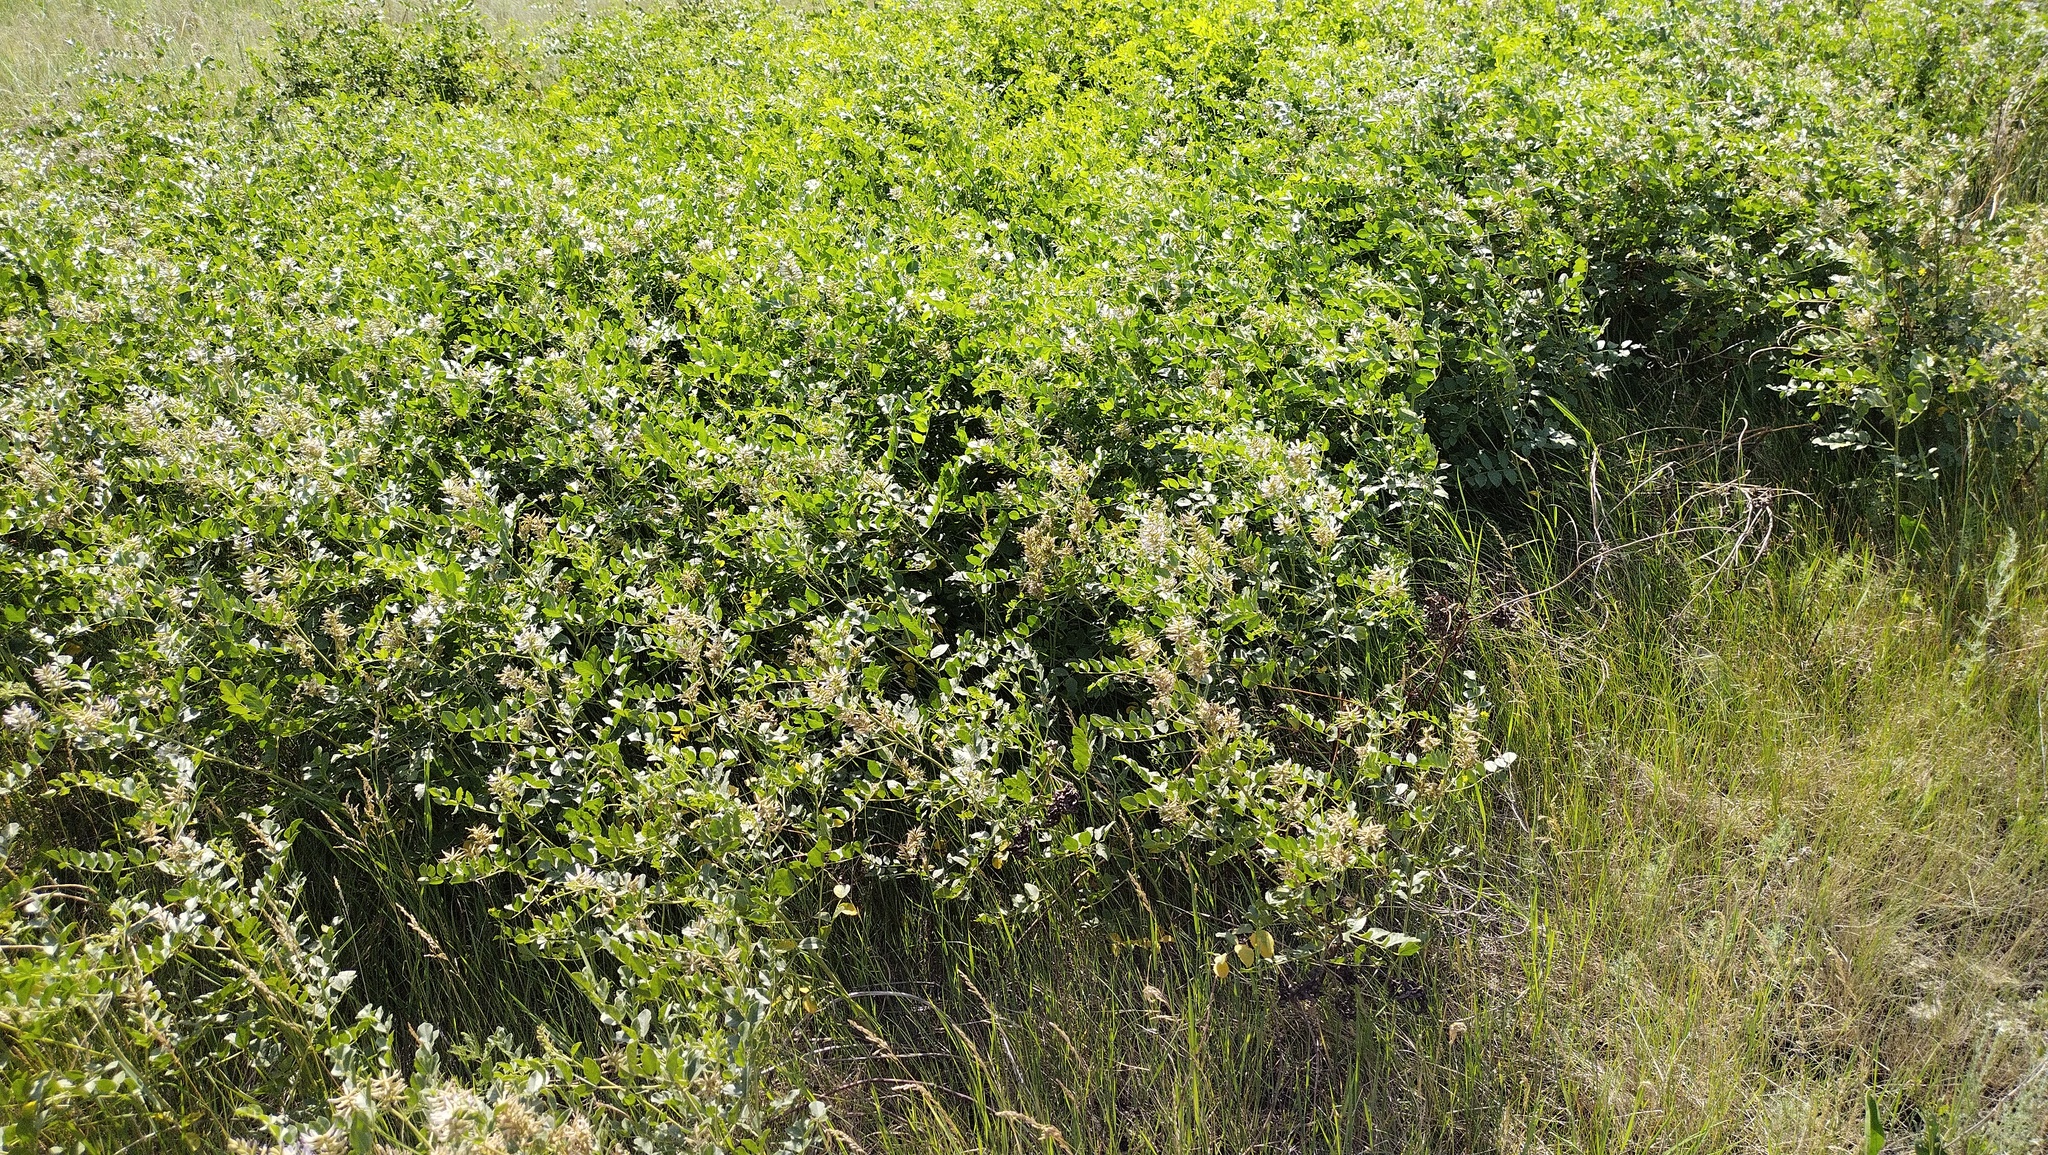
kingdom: Plantae
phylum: Tracheophyta
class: Magnoliopsida
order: Fabales
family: Fabaceae
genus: Glycyrrhiza
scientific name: Glycyrrhiza uralensis
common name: Chinese licorice
